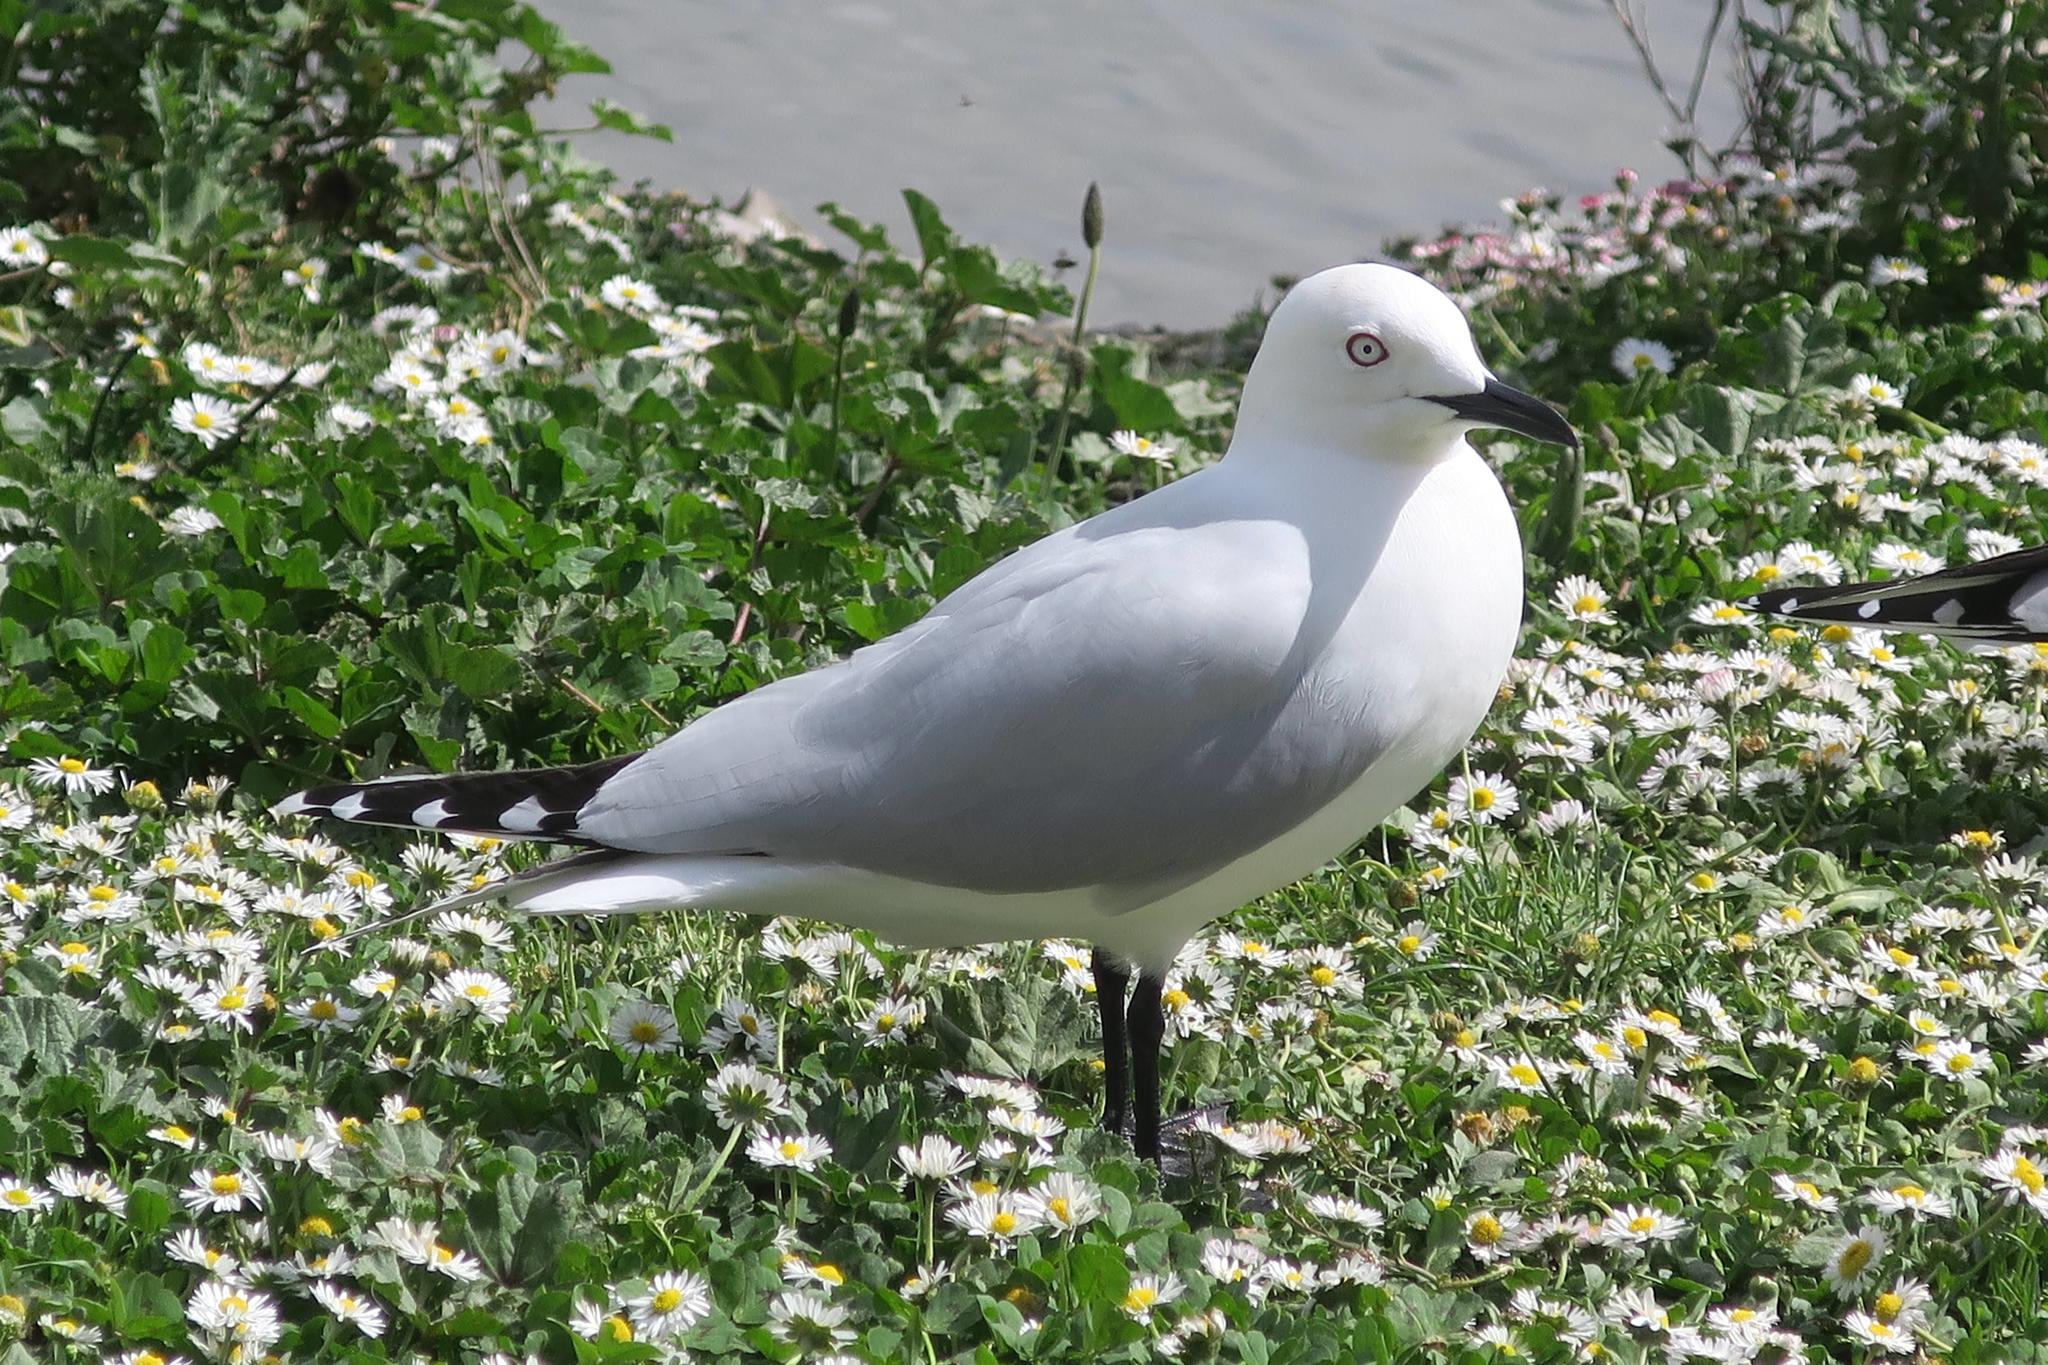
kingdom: Animalia
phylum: Chordata
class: Aves
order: Charadriiformes
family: Laridae
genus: Chroicocephalus
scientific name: Chroicocephalus bulleri
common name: Black-billed gull
